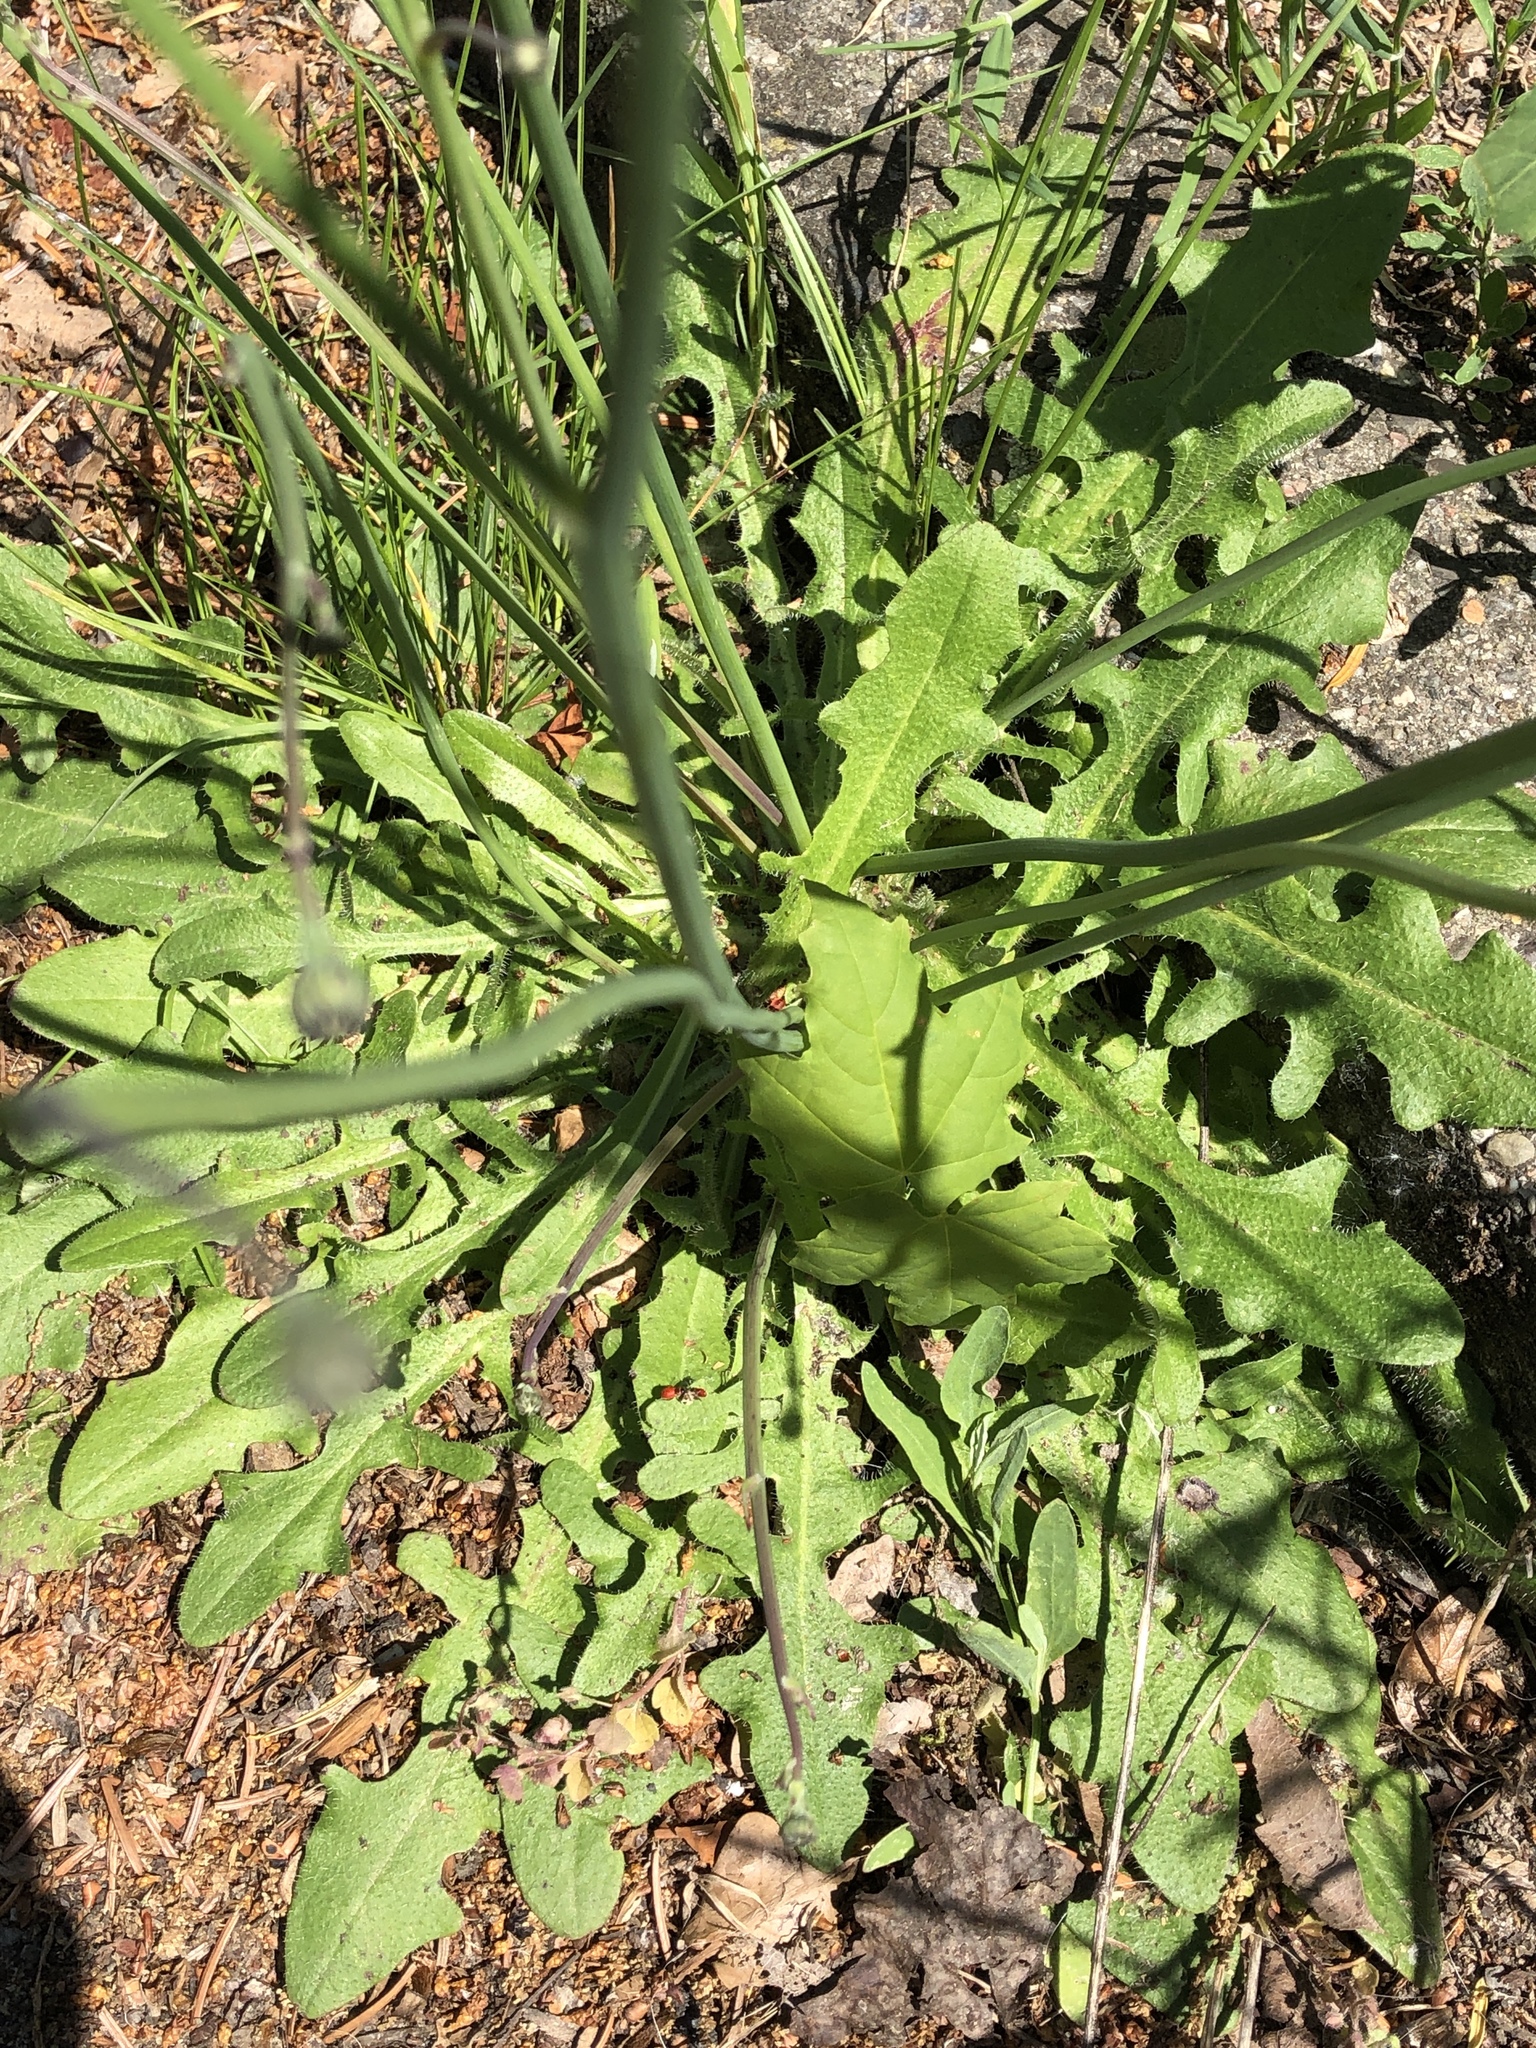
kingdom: Plantae
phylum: Tracheophyta
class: Magnoliopsida
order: Asterales
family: Asteraceae
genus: Hypochaeris
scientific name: Hypochaeris radicata
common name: Flatweed
